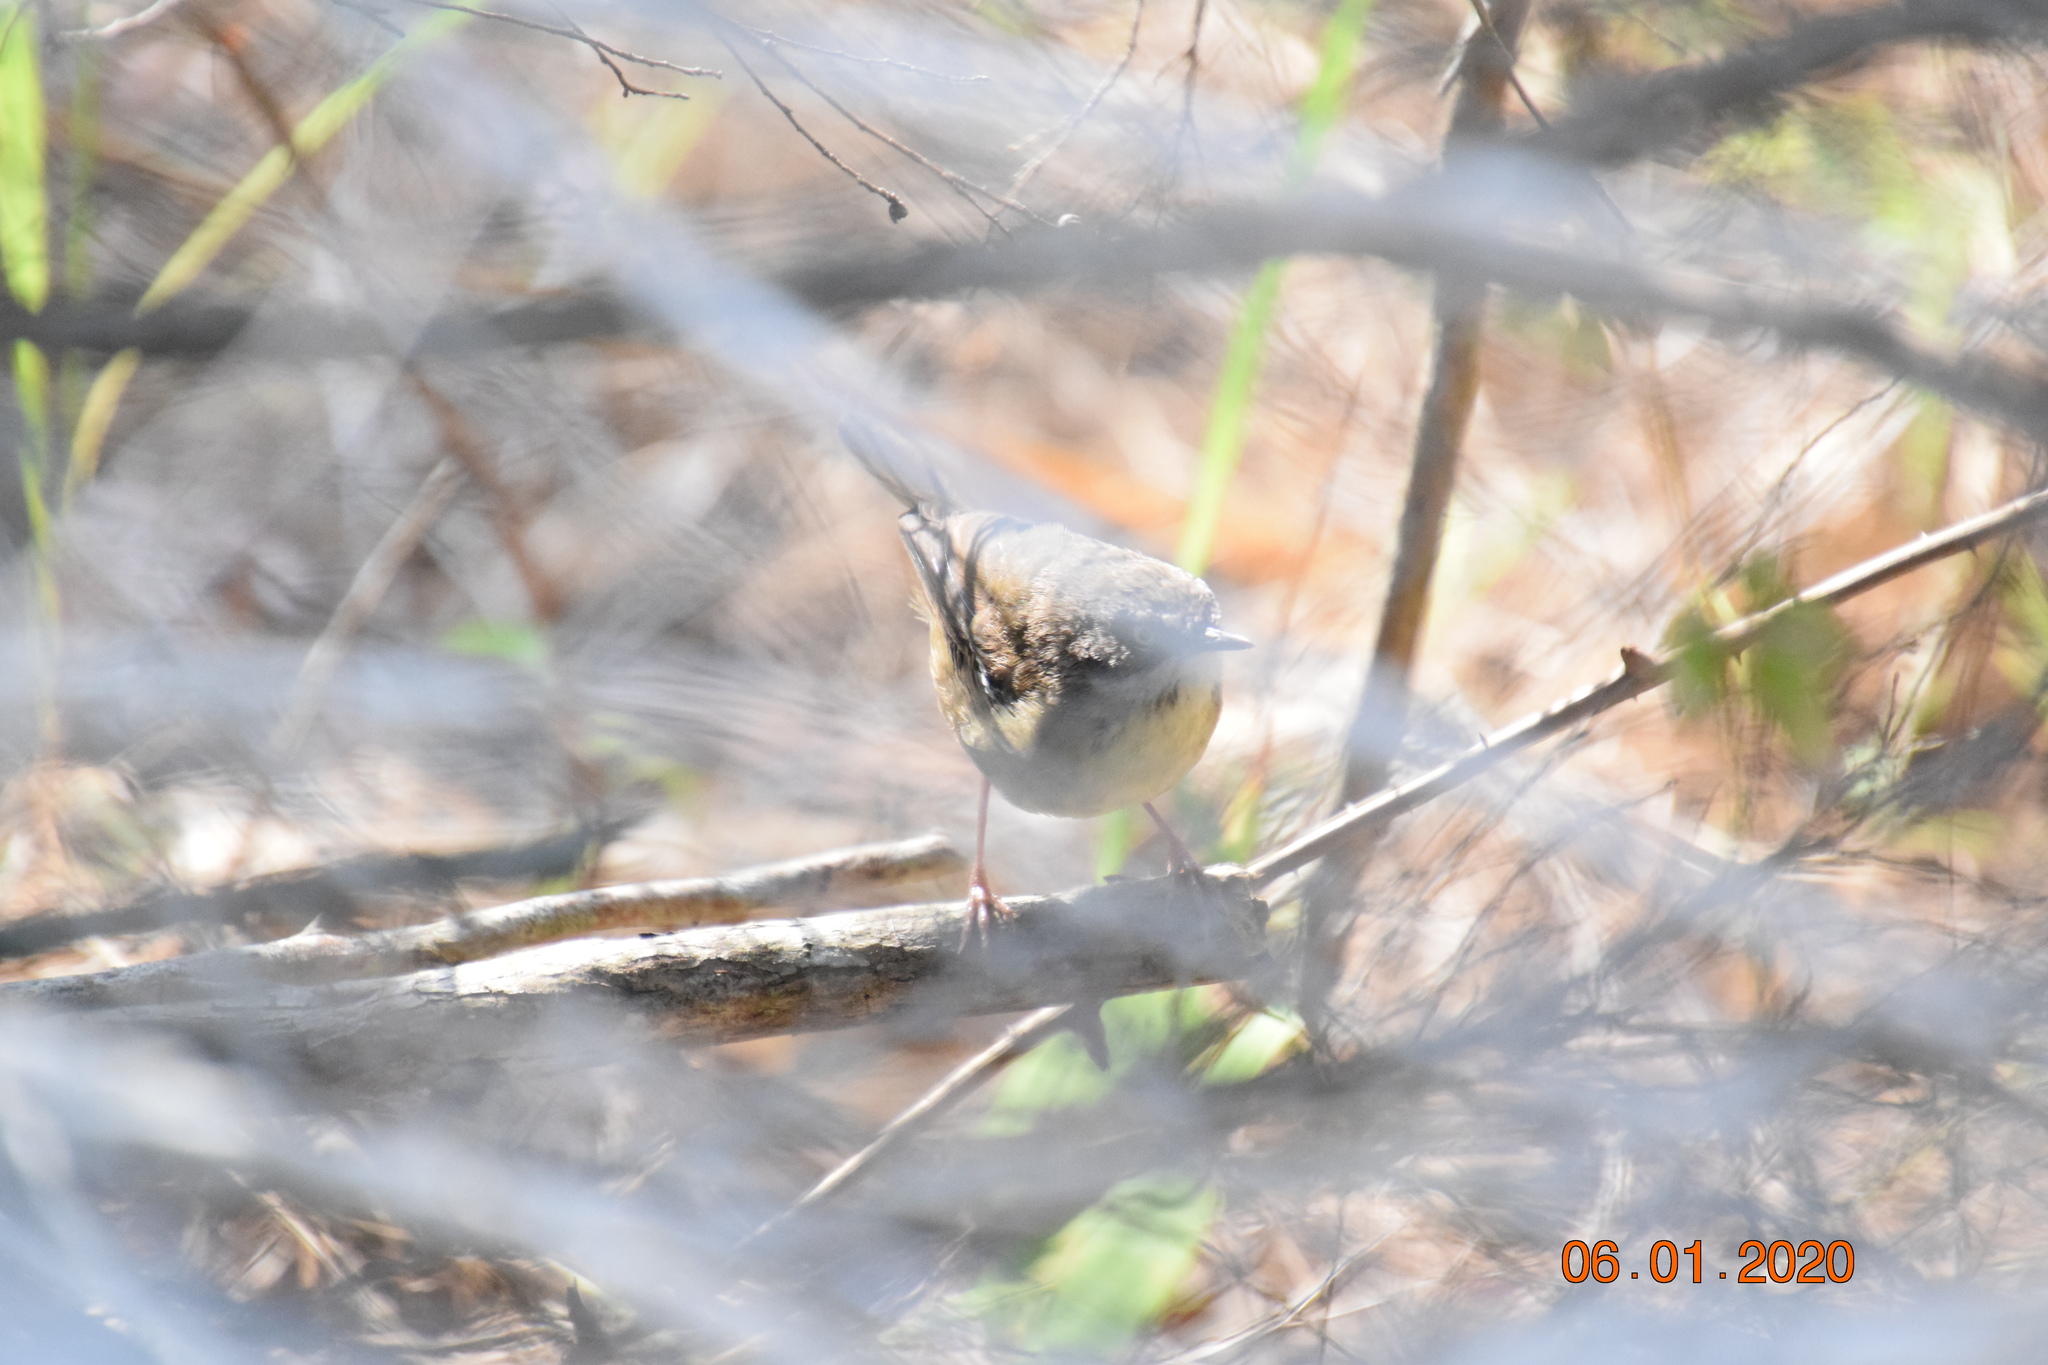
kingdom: Animalia
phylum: Chordata
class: Aves
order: Passeriformes
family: Acanthizidae
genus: Sericornis
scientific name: Sericornis frontalis
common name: White-browed scrubwren
